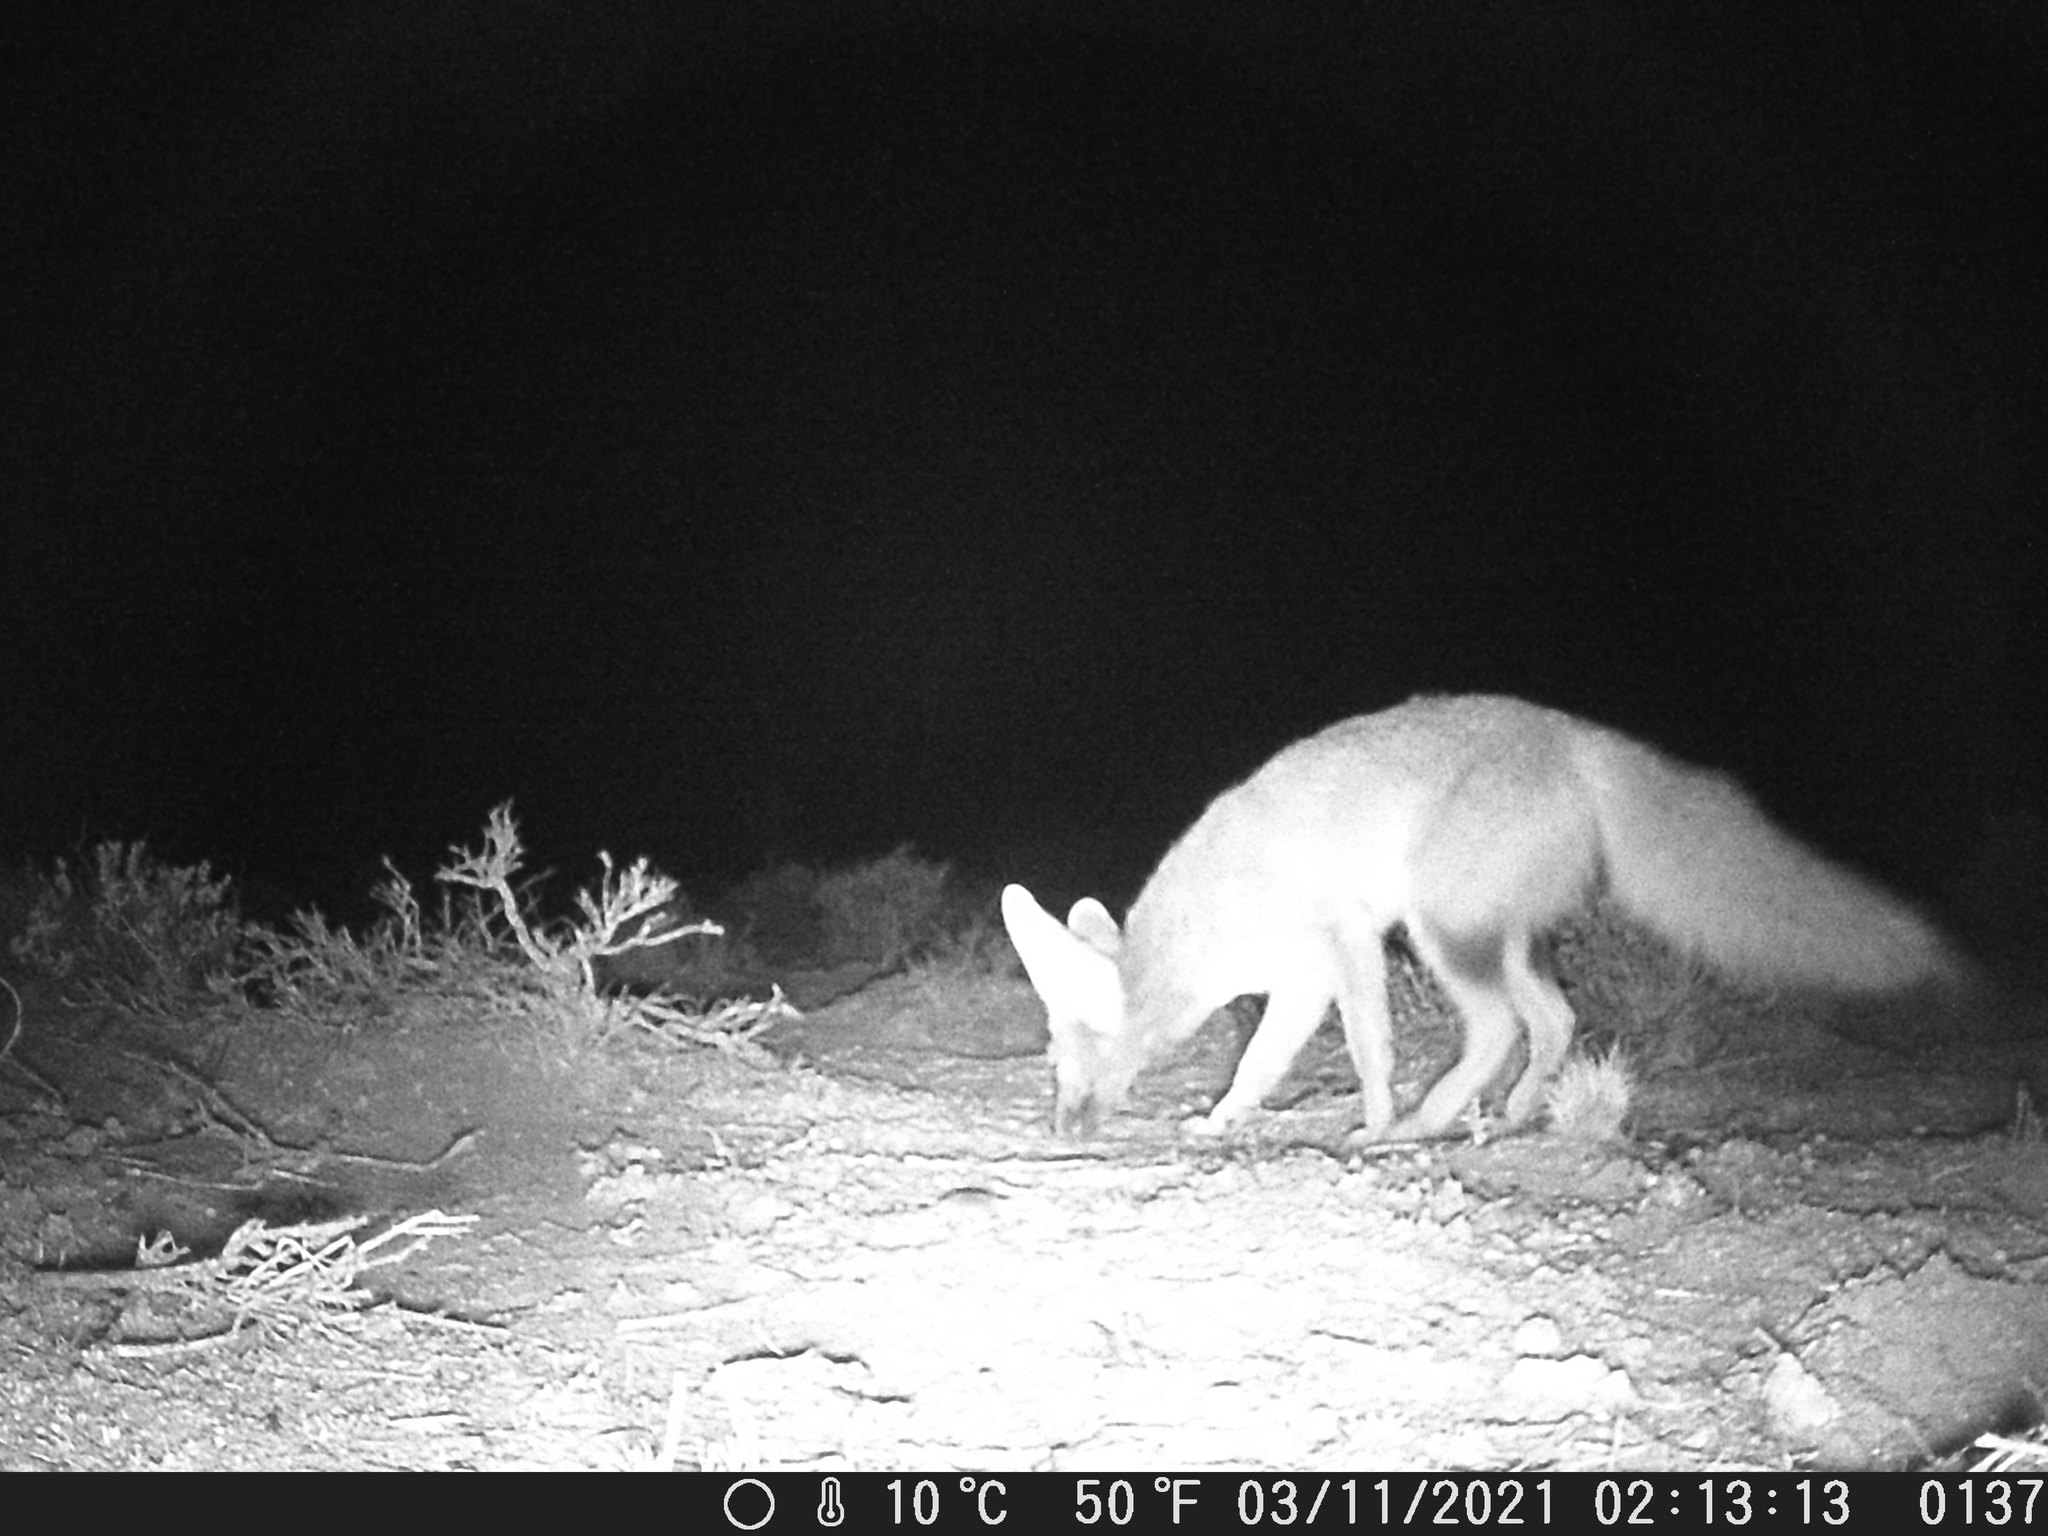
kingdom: Animalia
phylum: Chordata
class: Mammalia
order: Carnivora
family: Canidae
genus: Vulpes
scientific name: Vulpes chama
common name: Cape fox
